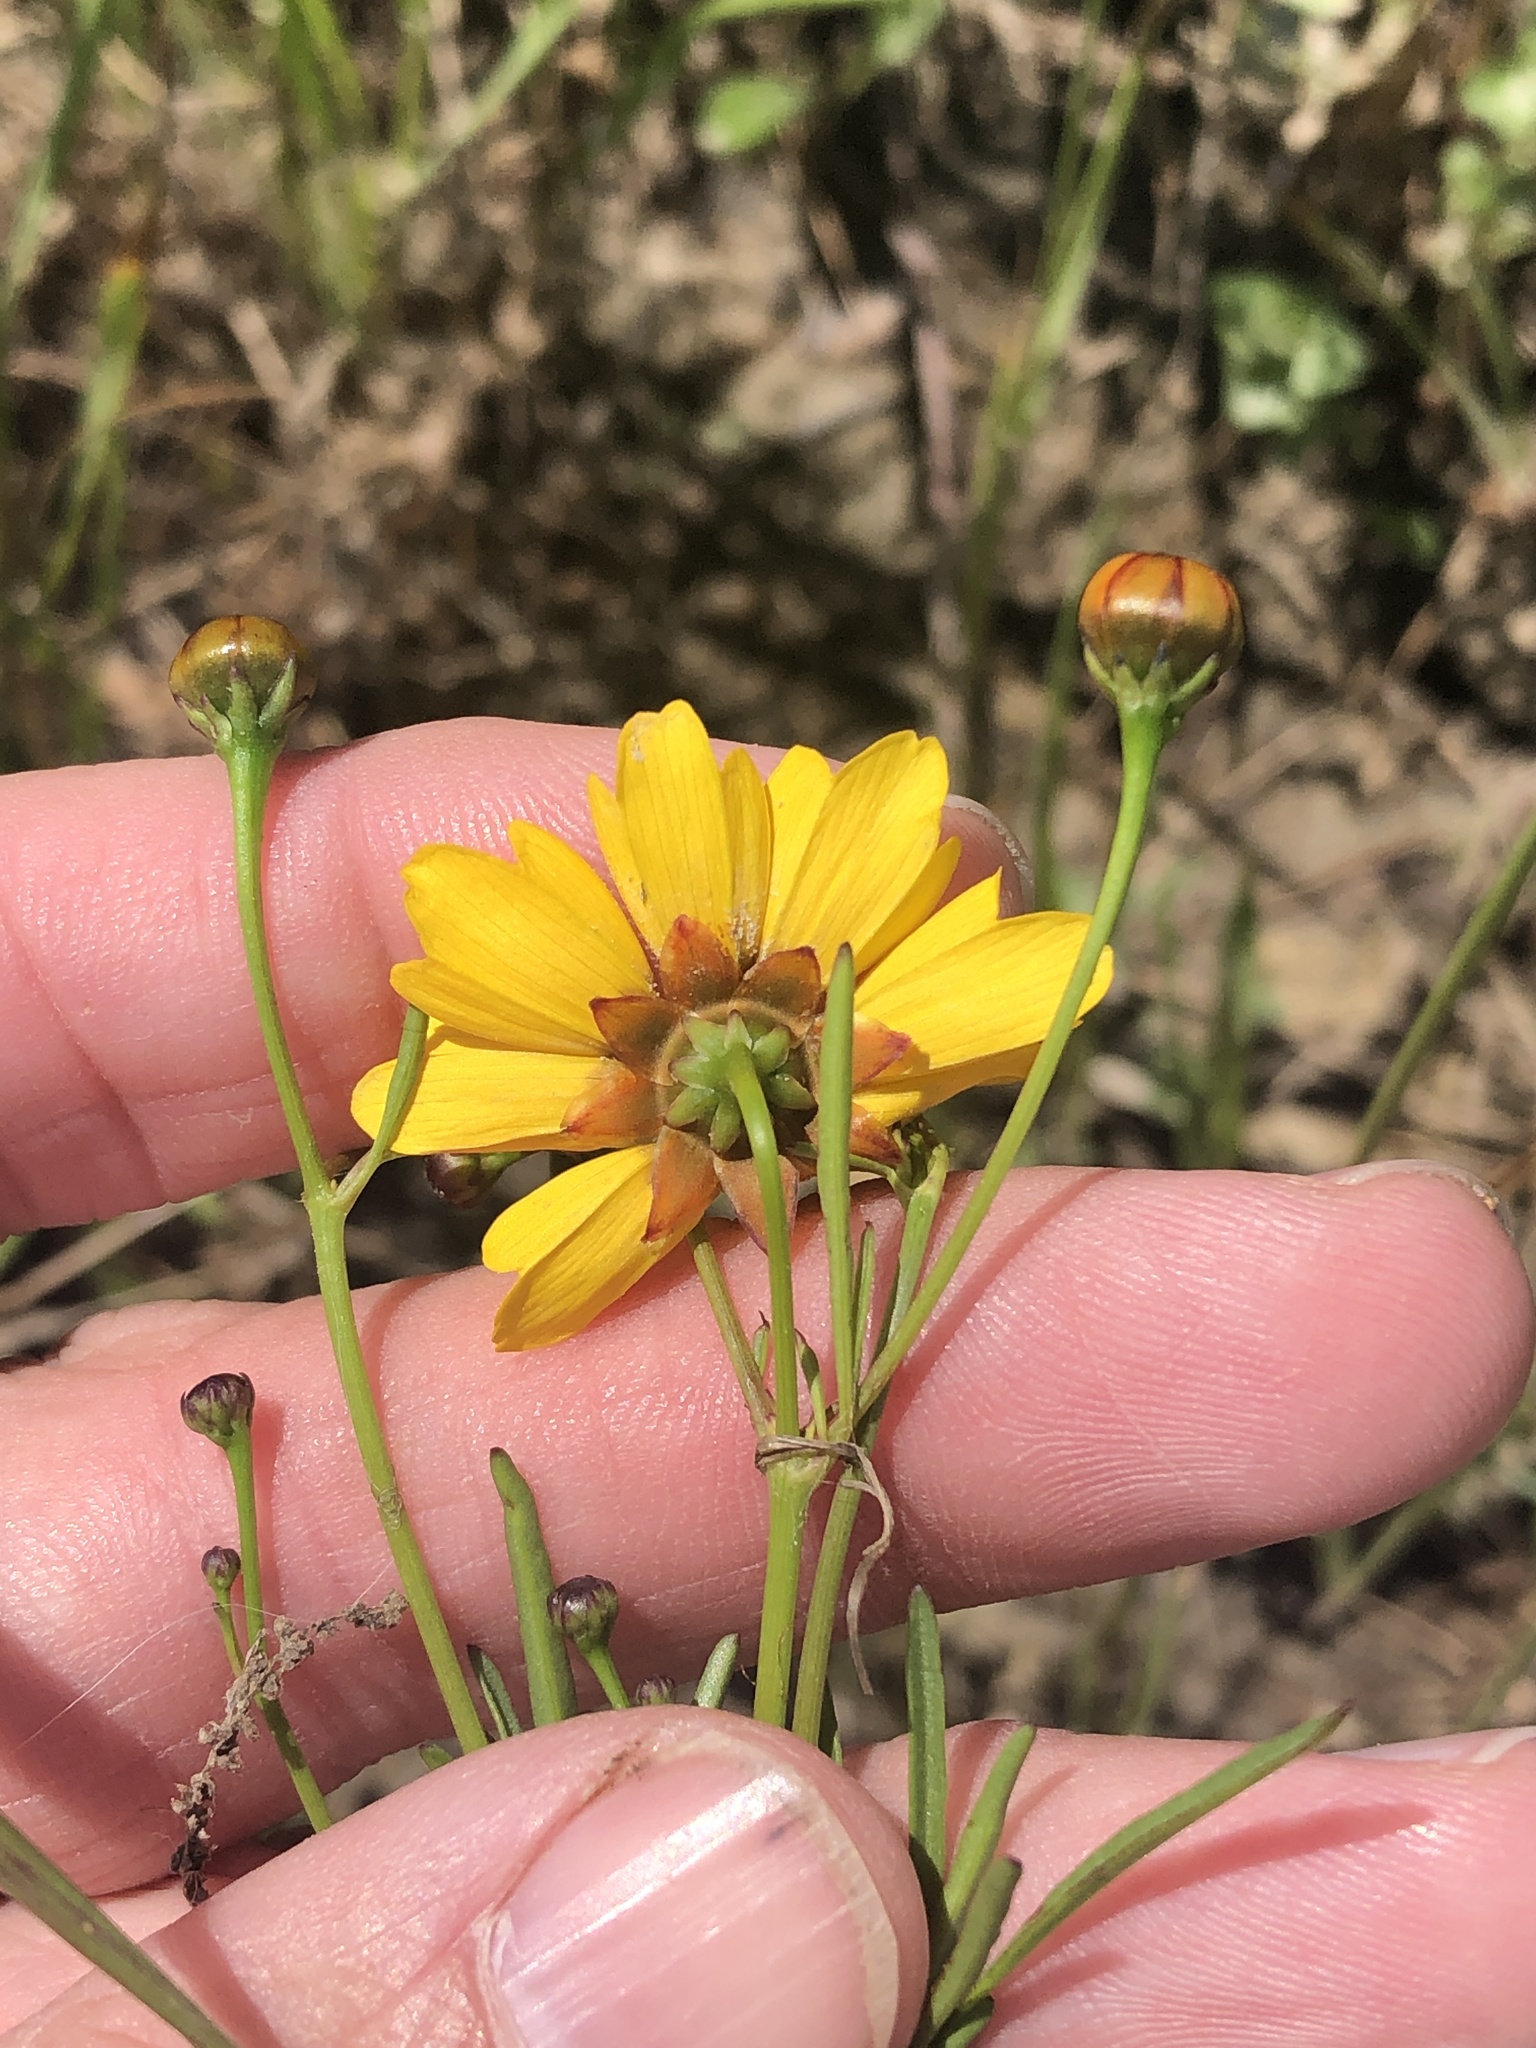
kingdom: Plantae
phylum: Tracheophyta
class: Magnoliopsida
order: Asterales
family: Asteraceae
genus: Coreopsis
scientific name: Coreopsis tinctoria
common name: Garden tickseed
